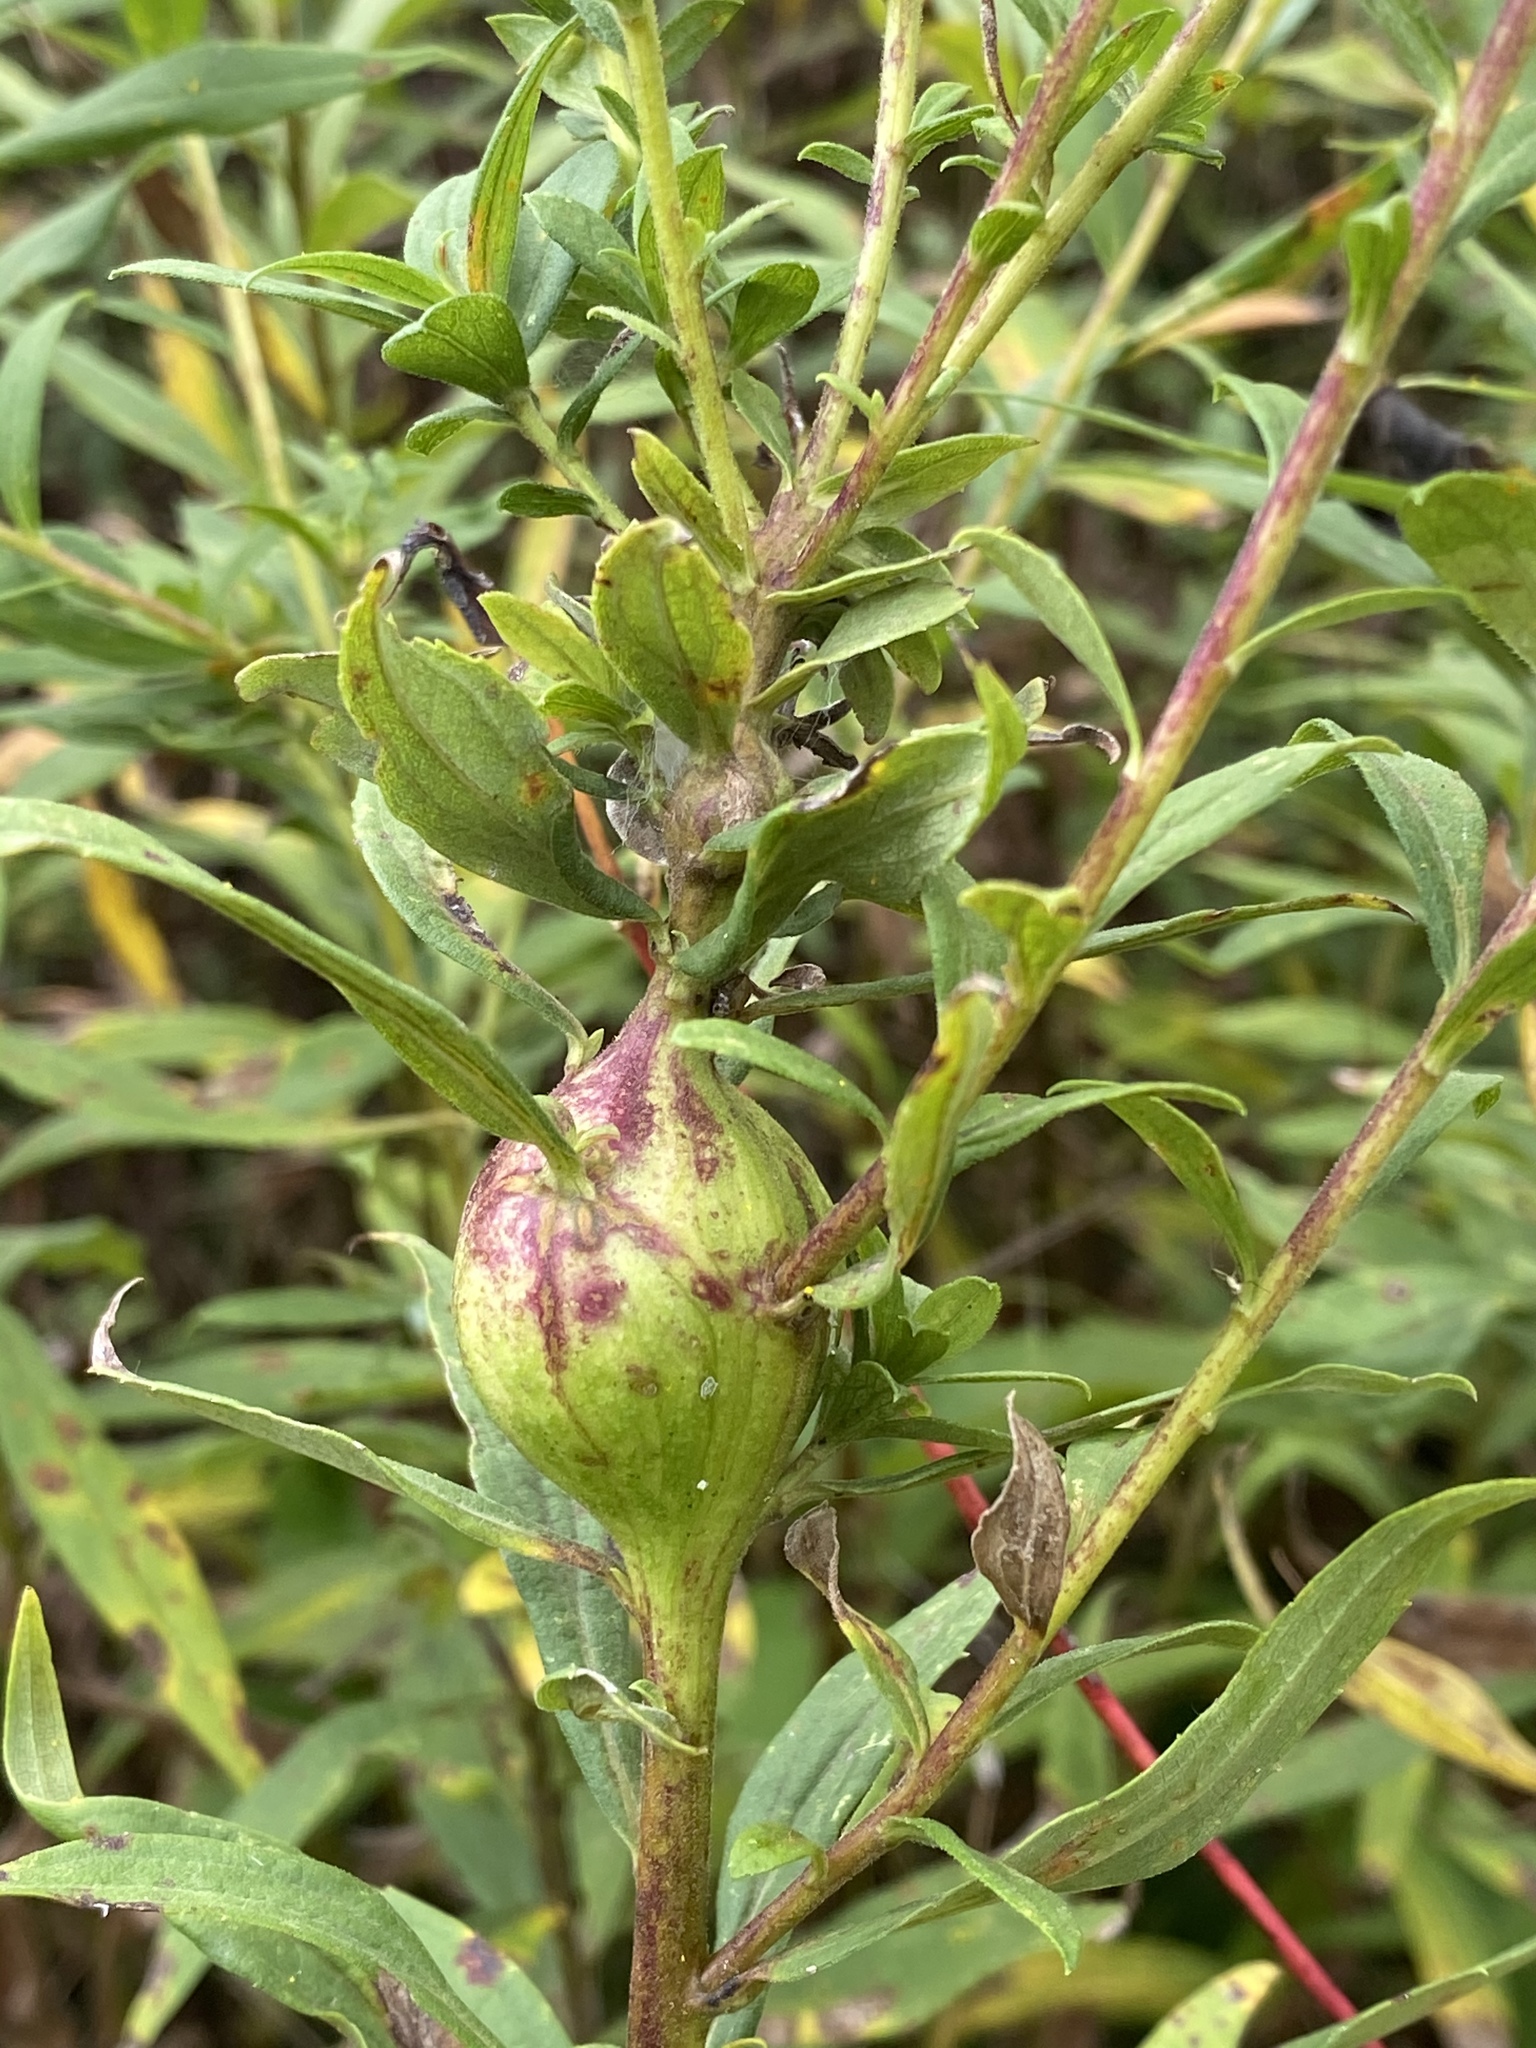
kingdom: Animalia
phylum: Arthropoda
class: Insecta
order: Diptera
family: Tephritidae
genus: Eurosta
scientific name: Eurosta solidaginis
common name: Goldenrod gall fly
